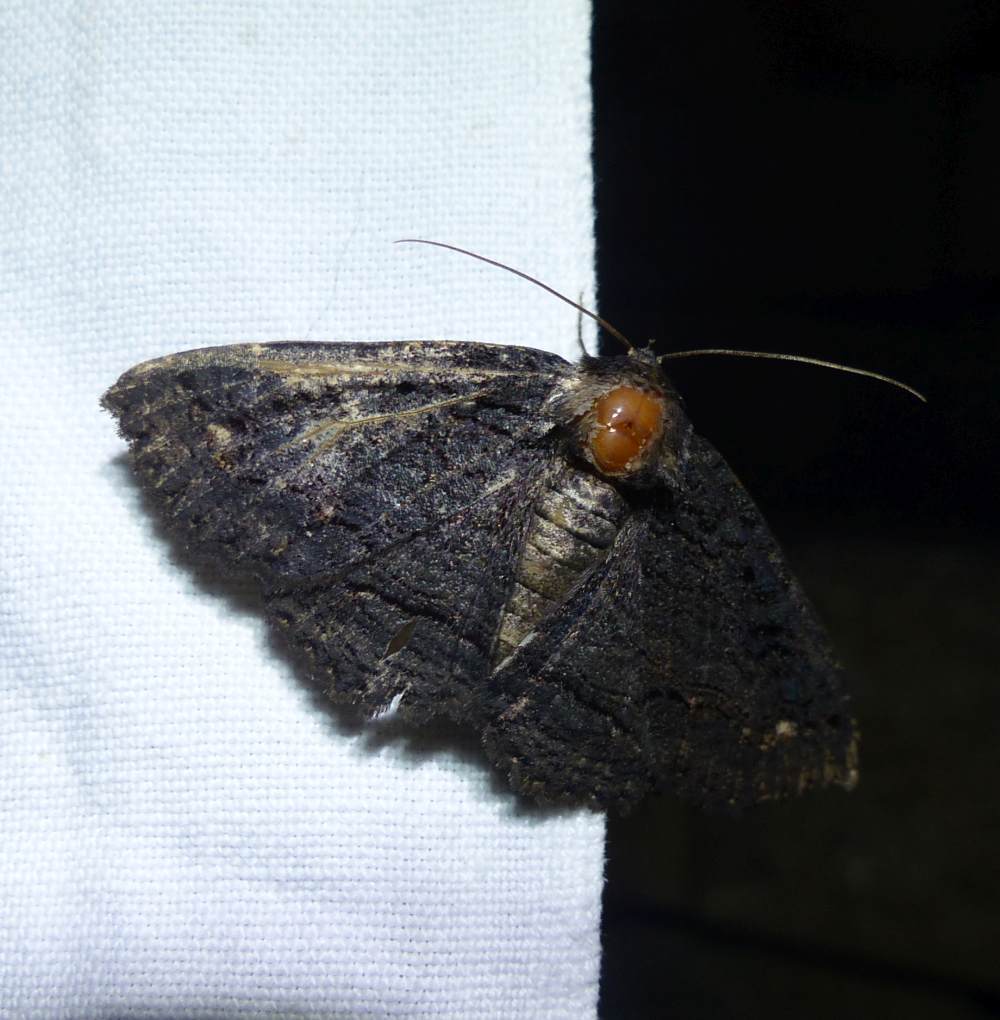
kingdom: Animalia
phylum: Arthropoda
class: Insecta
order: Lepidoptera
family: Erebidae
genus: Zale
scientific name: Zale undularis
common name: Black zale moth
